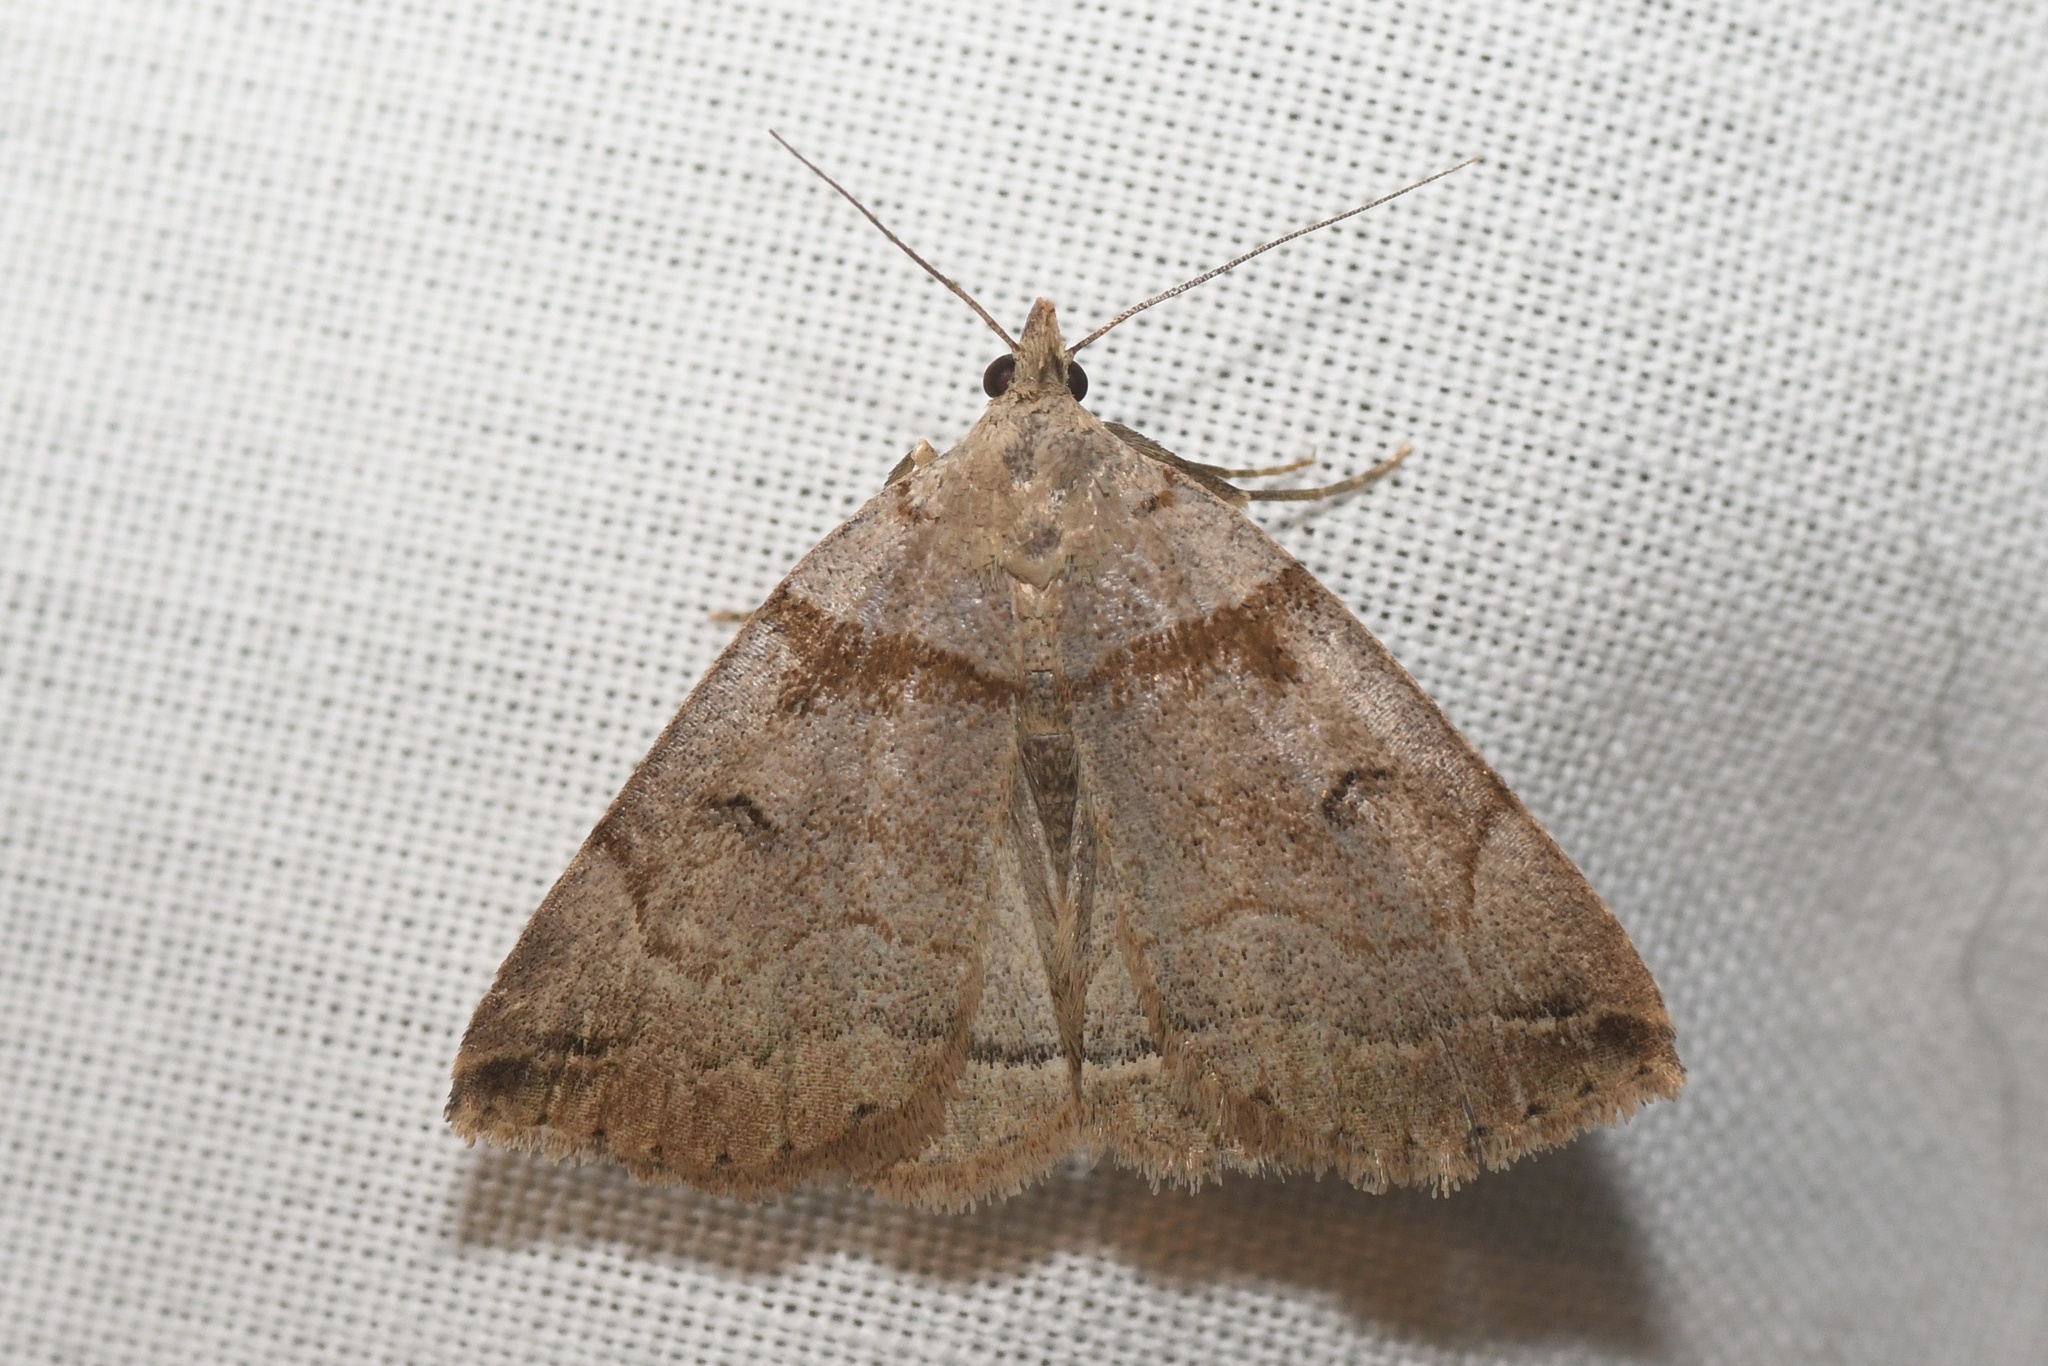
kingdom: Animalia
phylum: Arthropoda
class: Insecta
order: Lepidoptera
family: Erebidae
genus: Zanclognatha
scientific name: Zanclognatha laevigata
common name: Variable fan-foot
